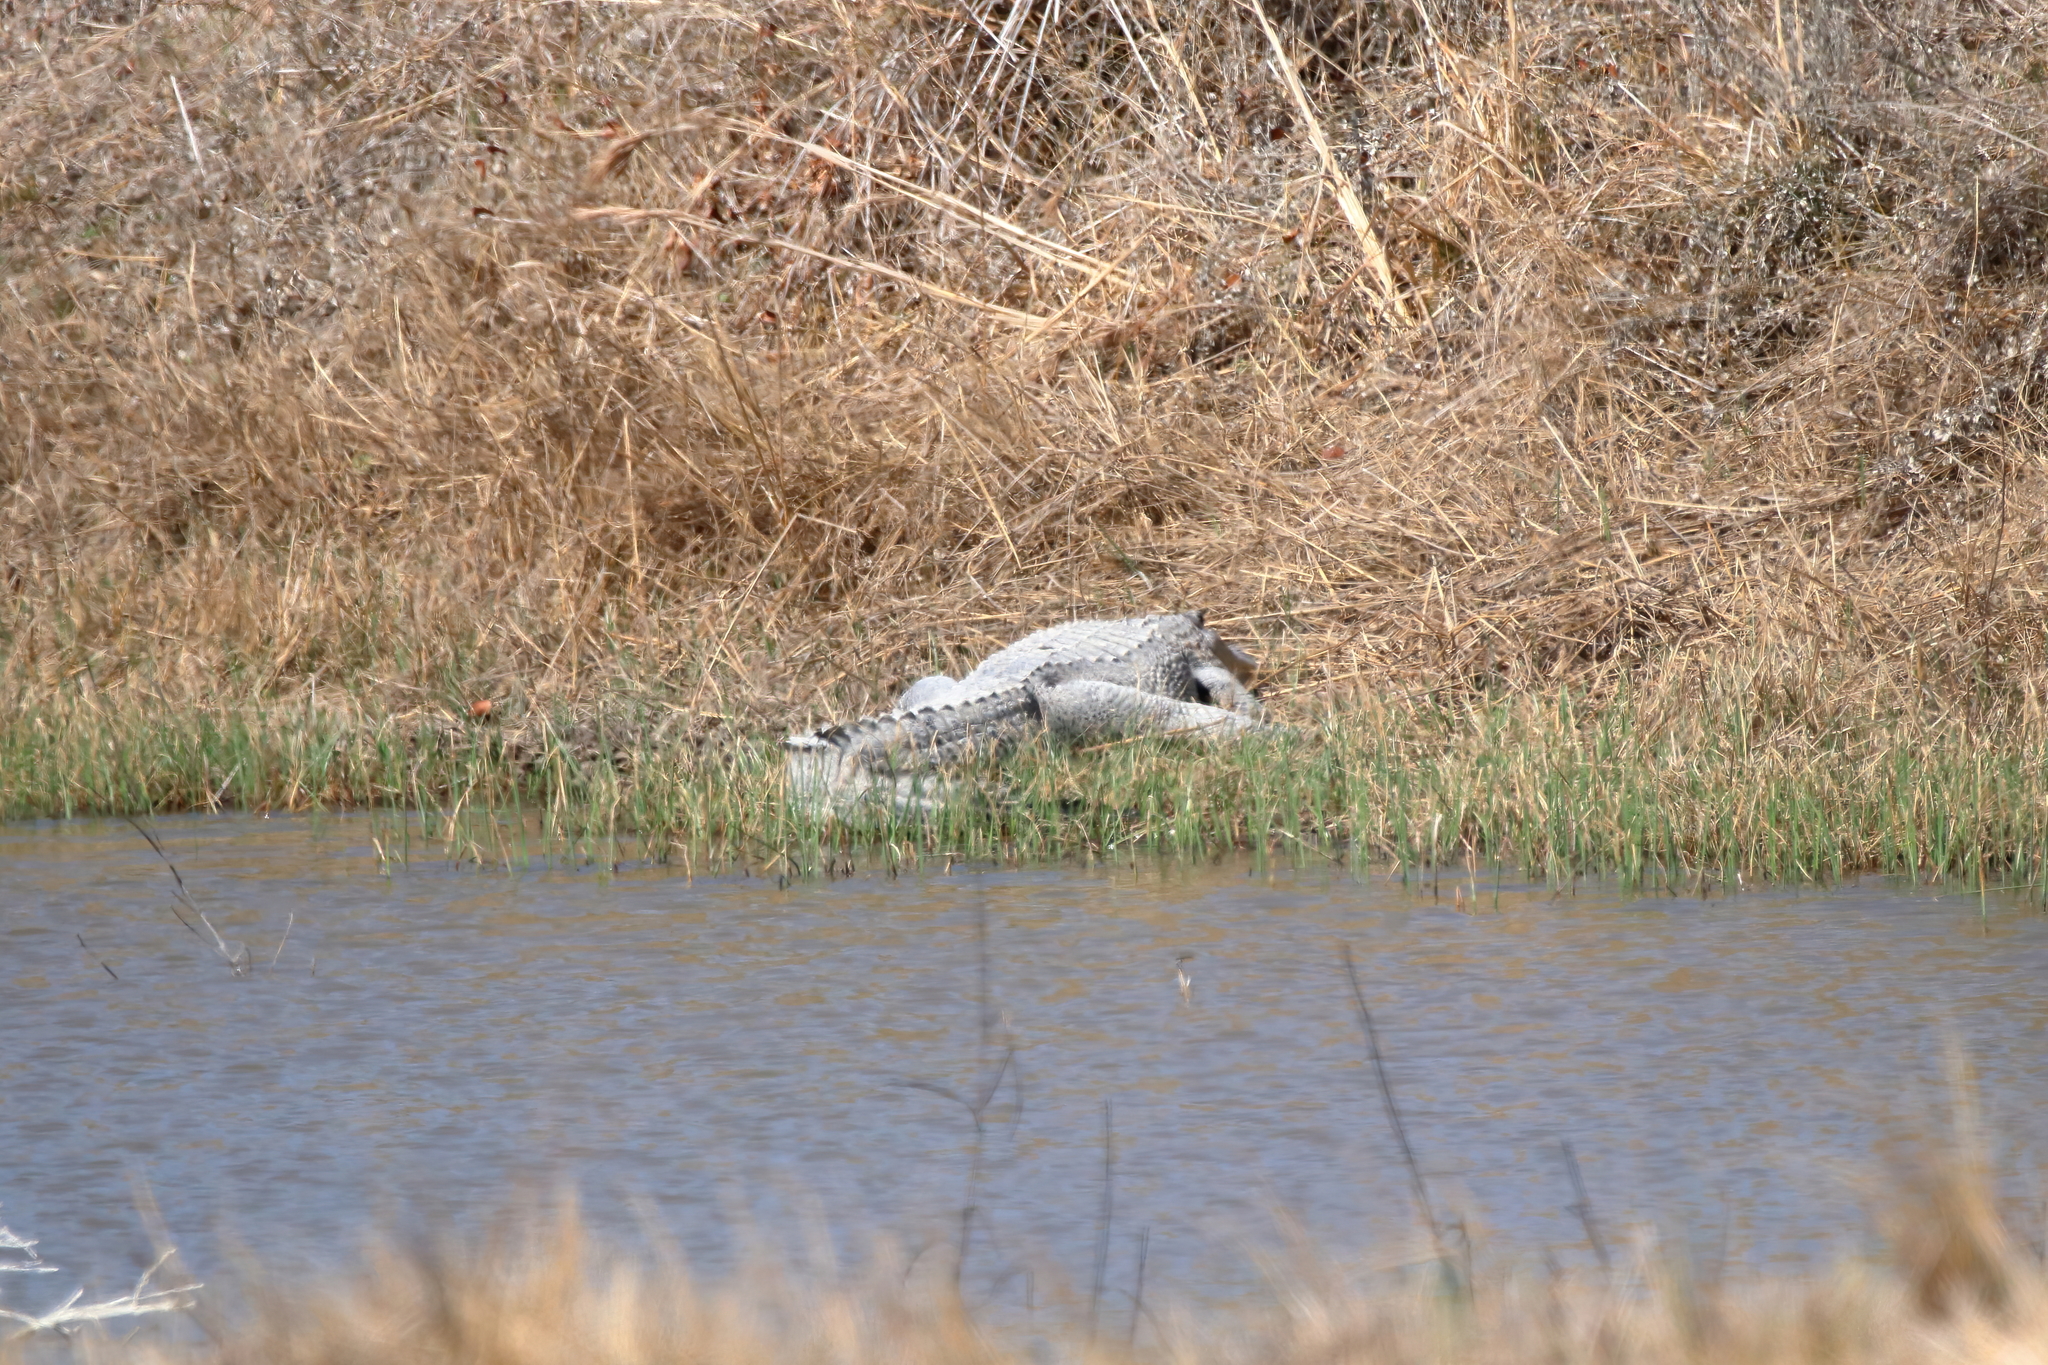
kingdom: Animalia
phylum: Chordata
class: Crocodylia
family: Alligatoridae
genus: Alligator
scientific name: Alligator mississippiensis
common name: American alligator
